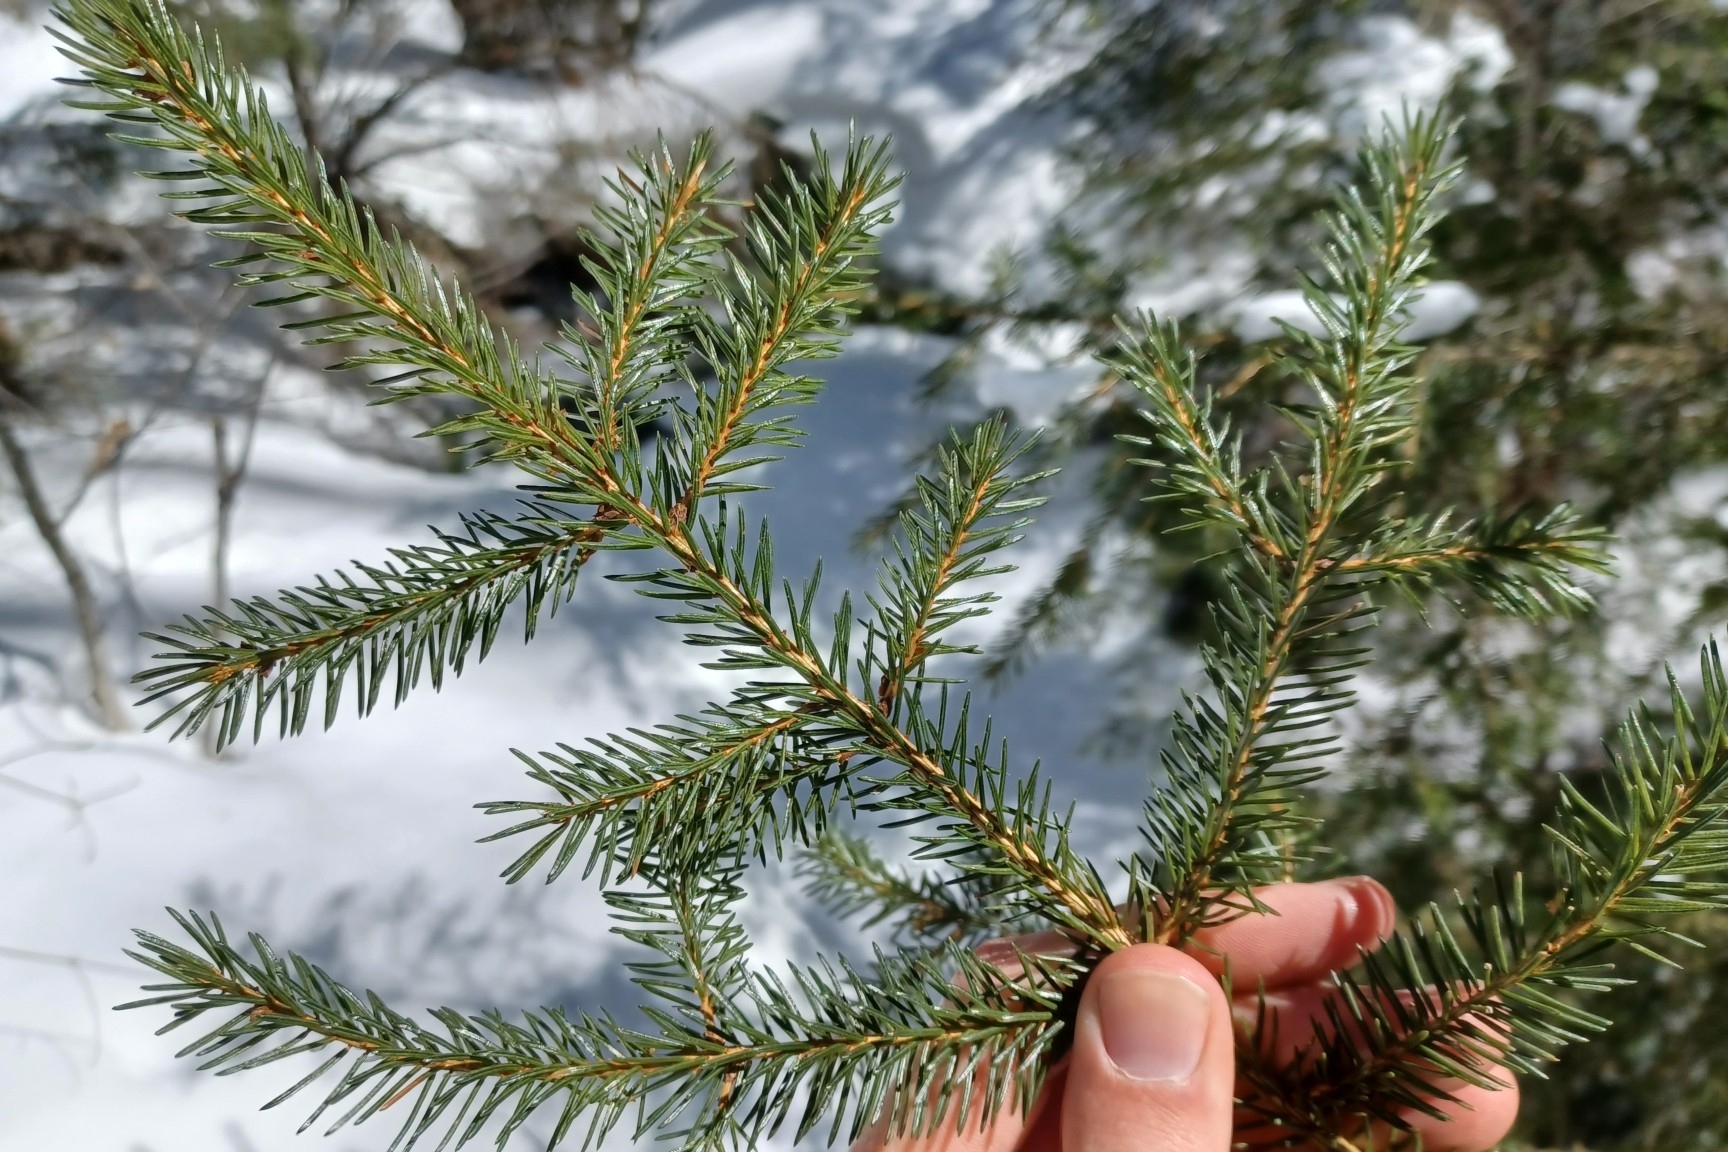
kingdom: Plantae
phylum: Tracheophyta
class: Pinopsida
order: Pinales
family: Pinaceae
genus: Picea
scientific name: Picea rubens
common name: Red spruce
